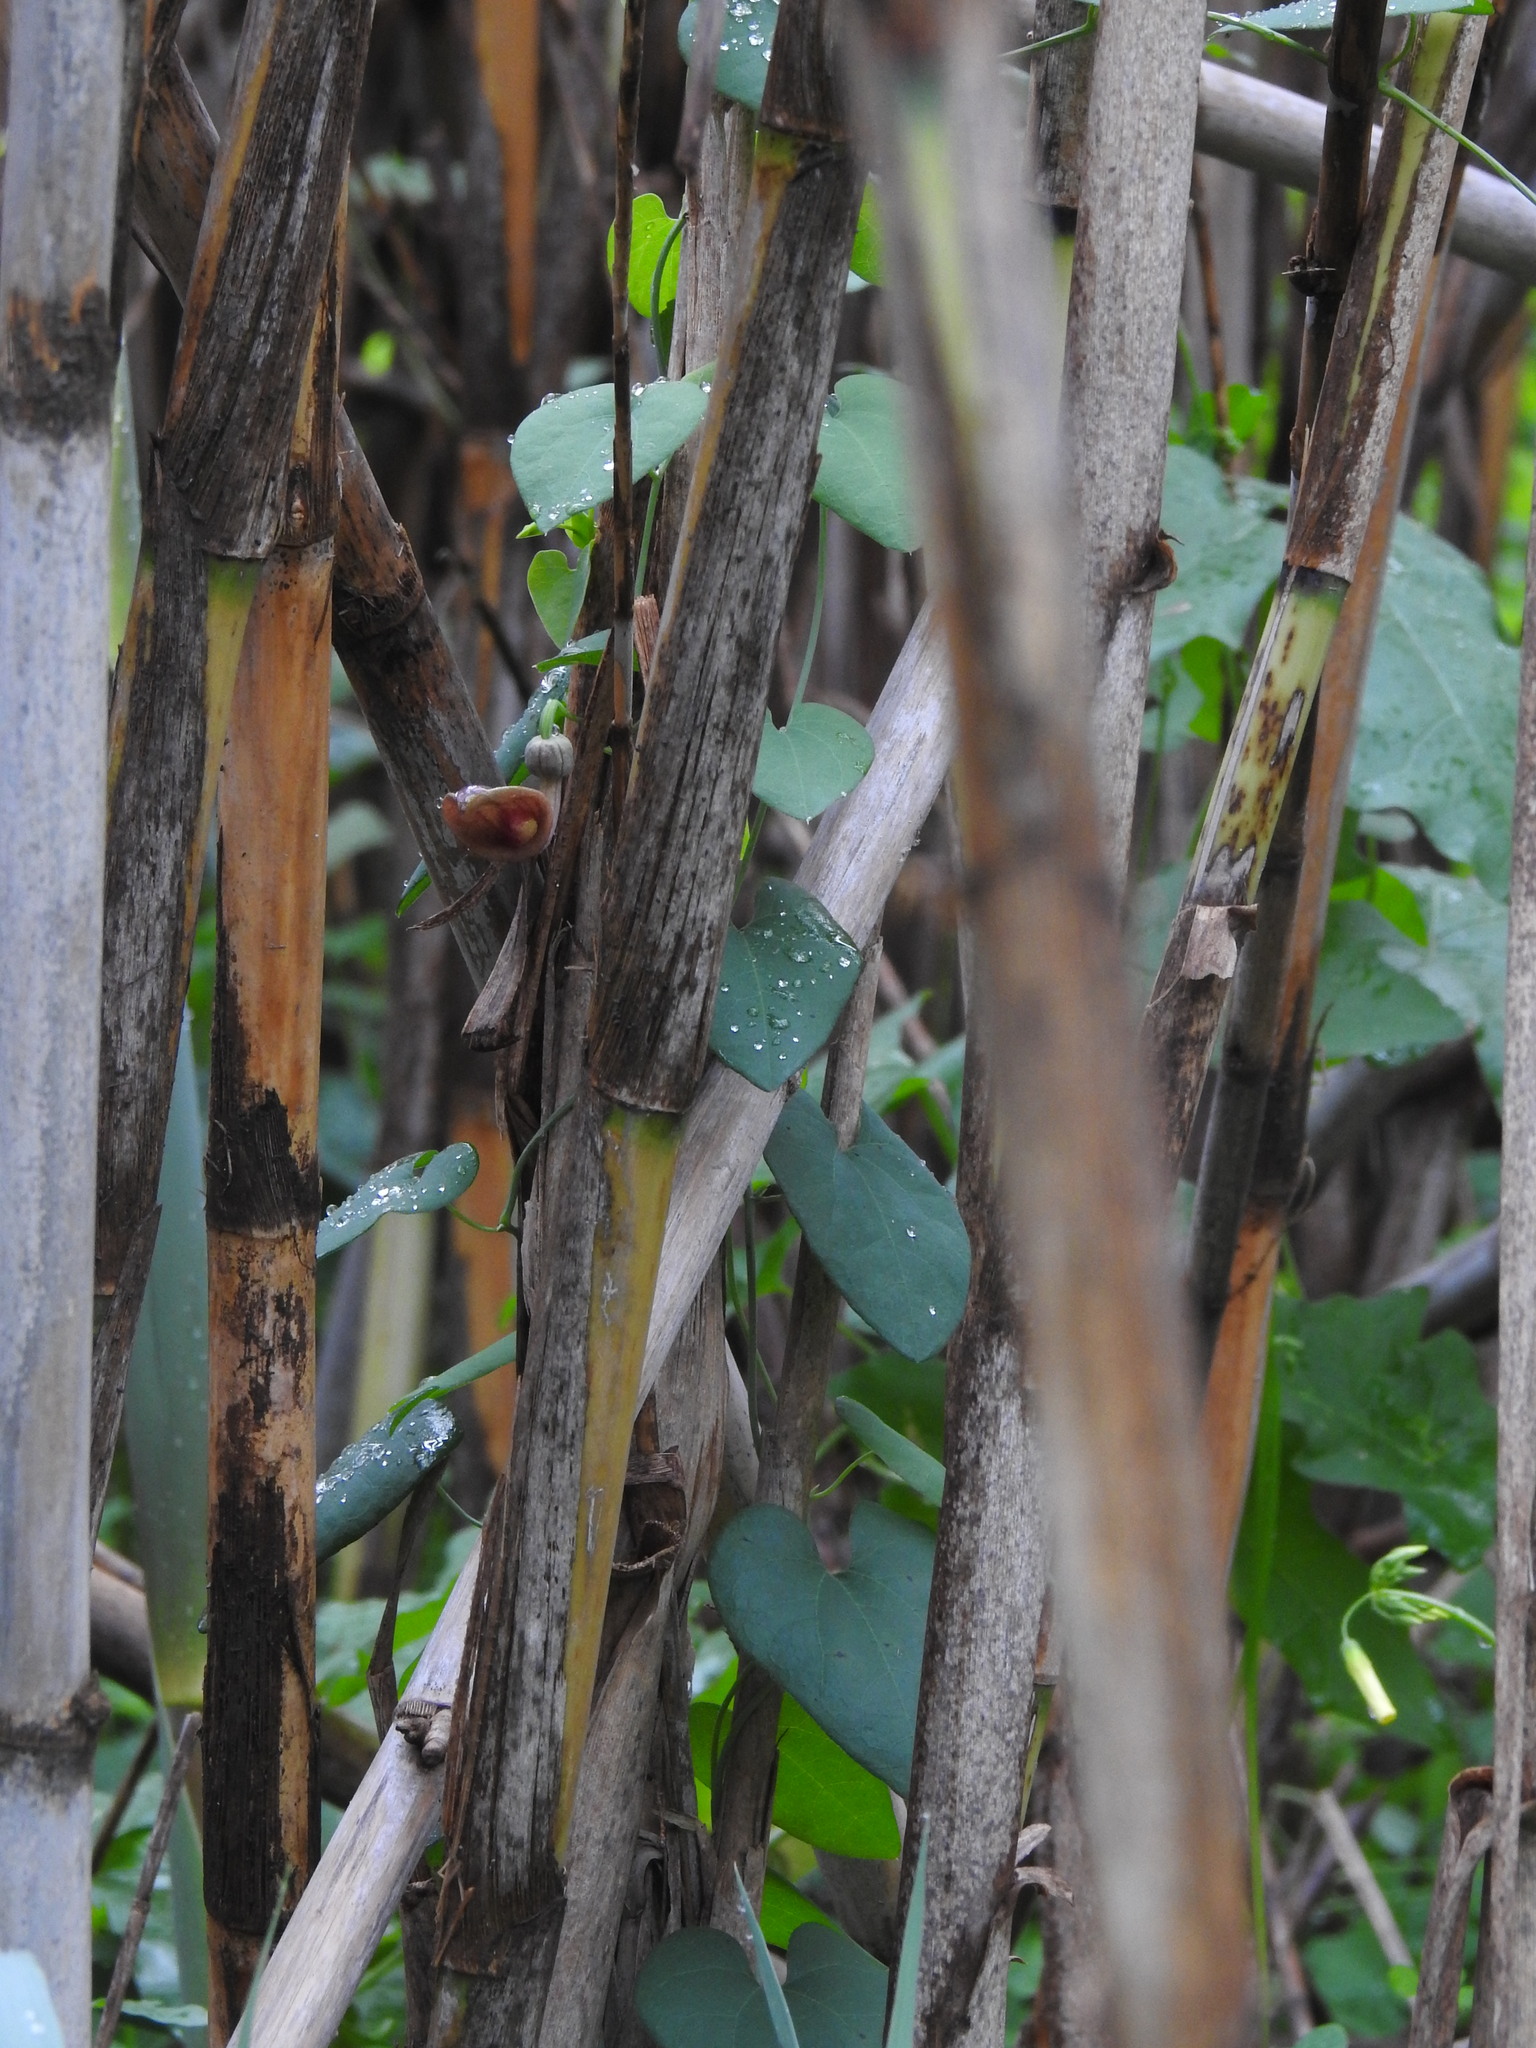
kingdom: Plantae
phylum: Tracheophyta
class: Magnoliopsida
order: Piperales
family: Aristolochiaceae
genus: Aristolochia
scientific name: Aristolochia baetica
